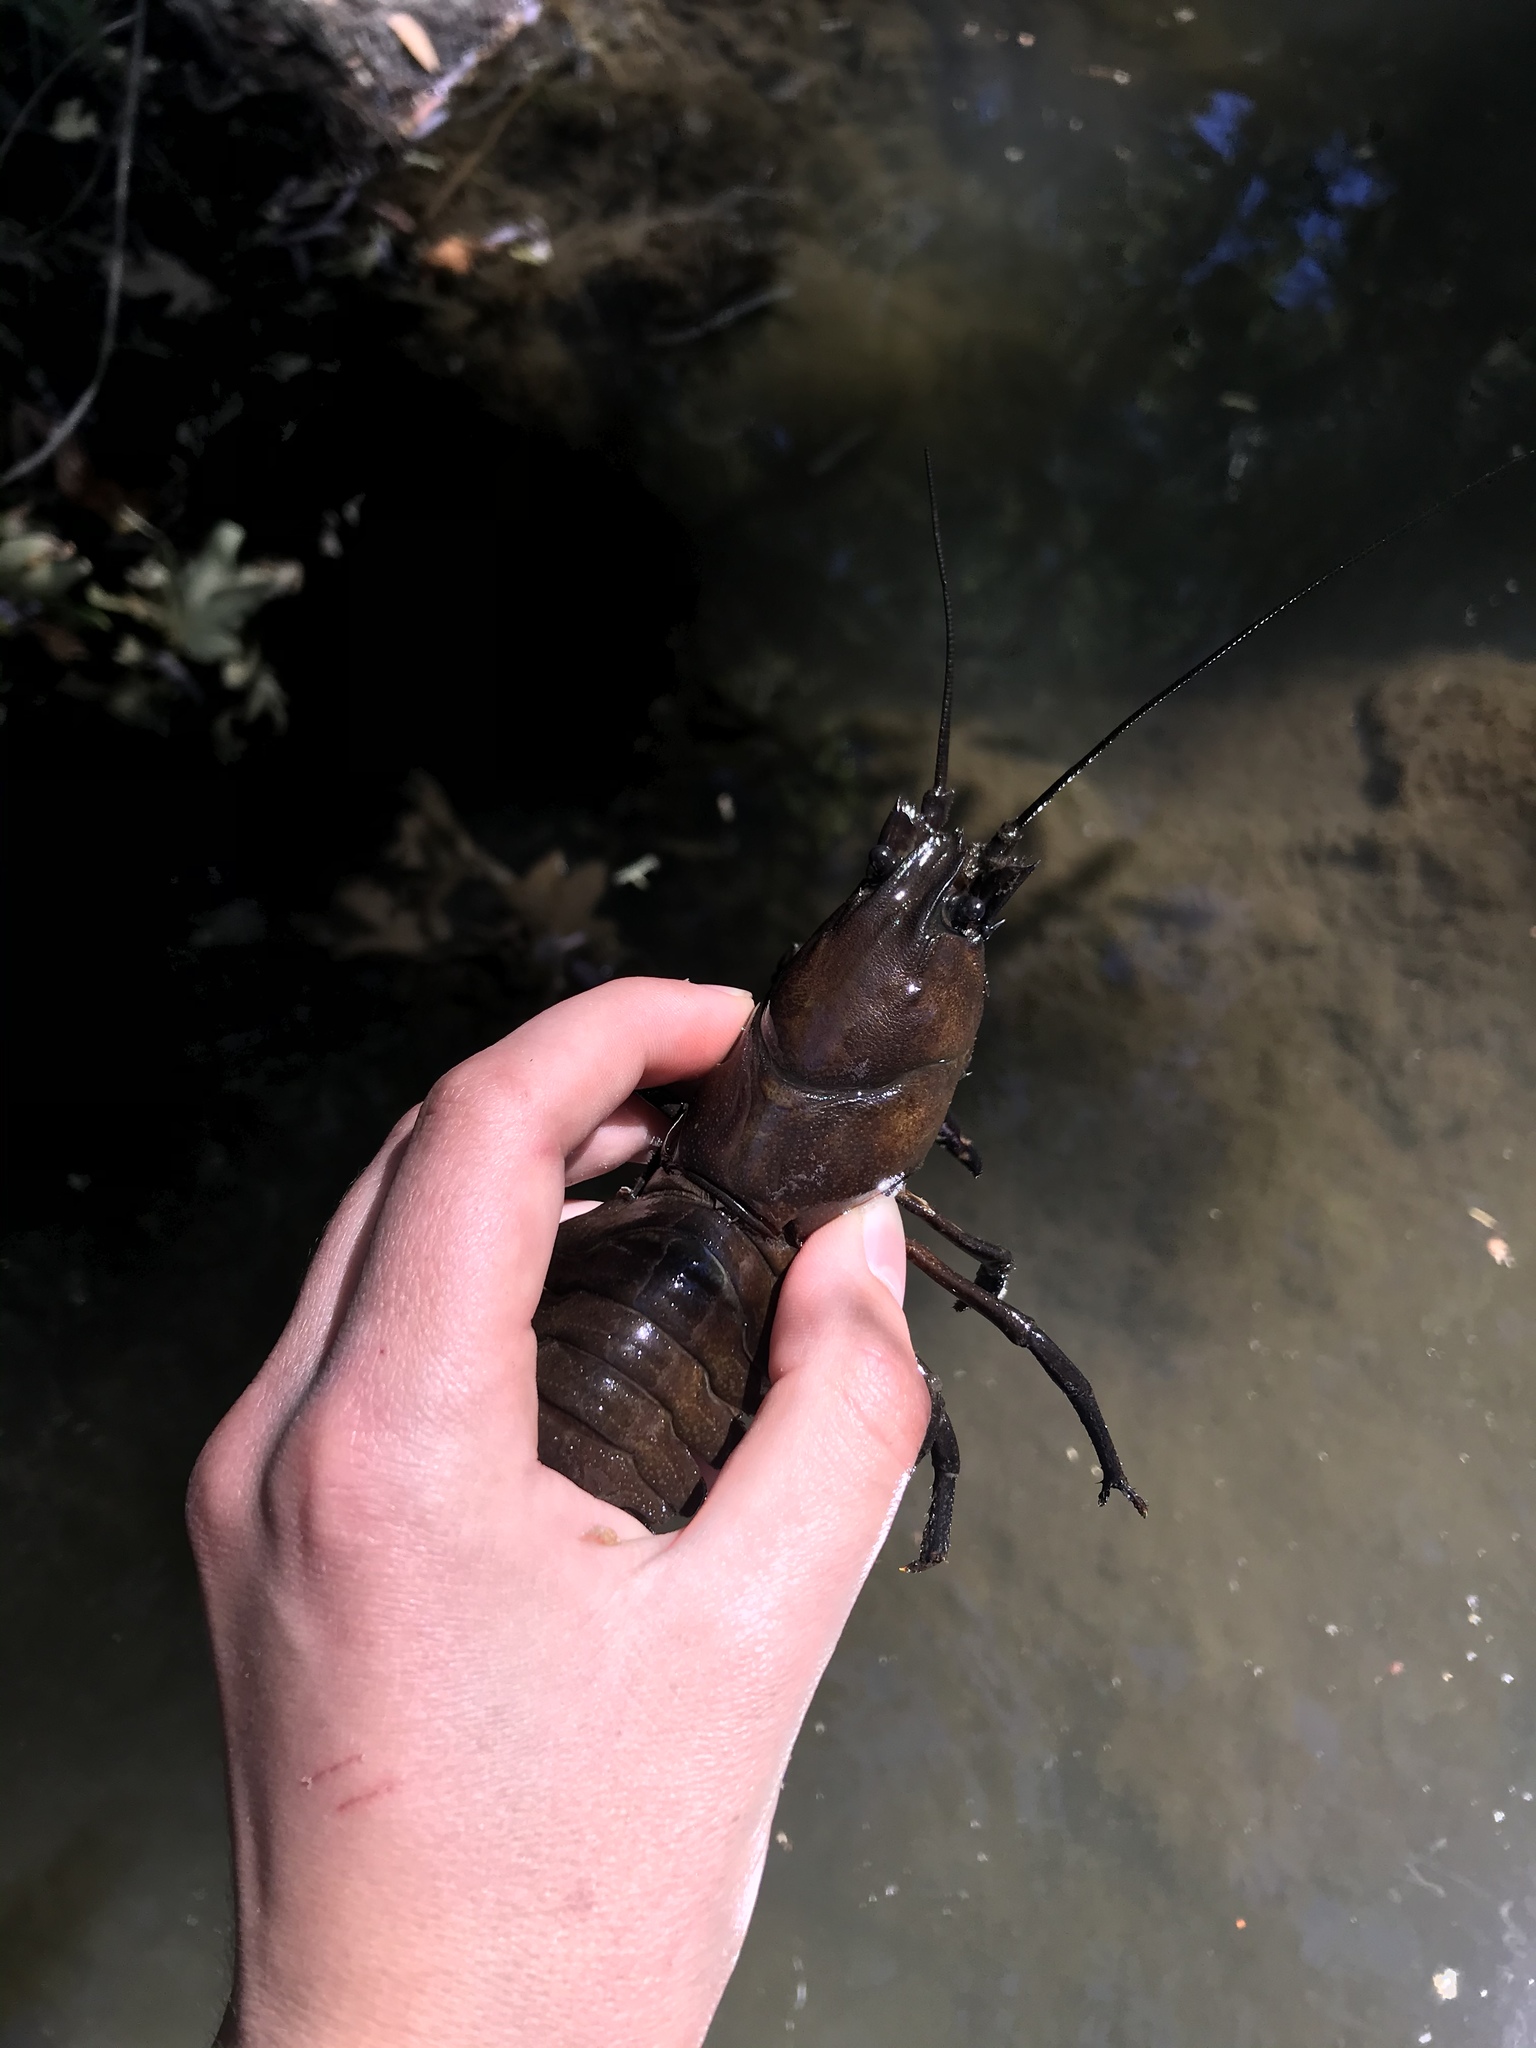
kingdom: Animalia
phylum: Arthropoda
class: Malacostraca
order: Decapoda
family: Astacidae
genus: Pacifastacus
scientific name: Pacifastacus leniusculus
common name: Signal crayfish
